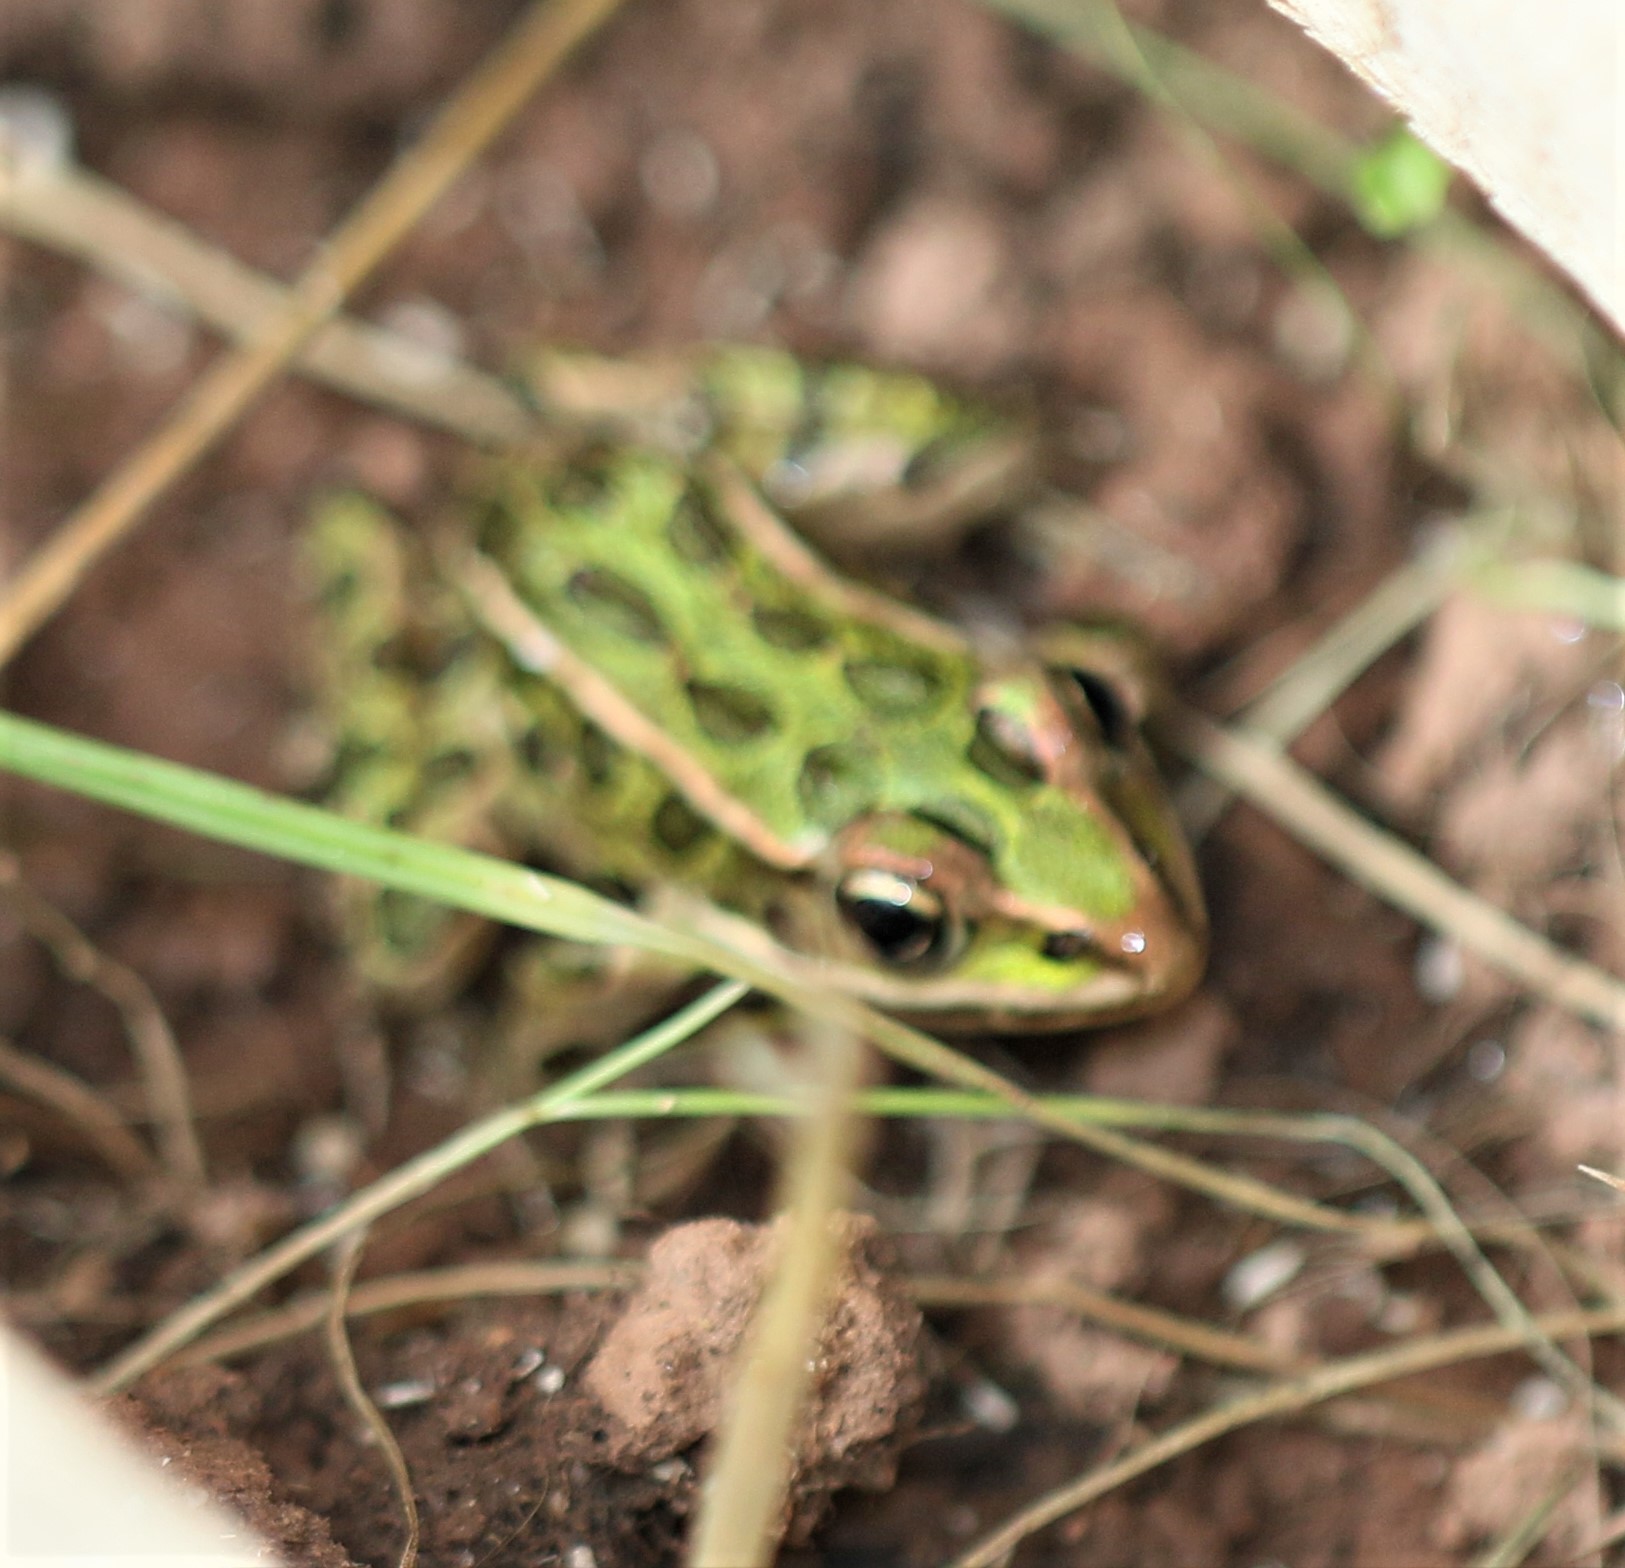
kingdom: Animalia
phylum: Chordata
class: Amphibia
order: Anura
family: Ranidae
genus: Lithobates
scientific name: Lithobates pipiens
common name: Northern leopard frog
